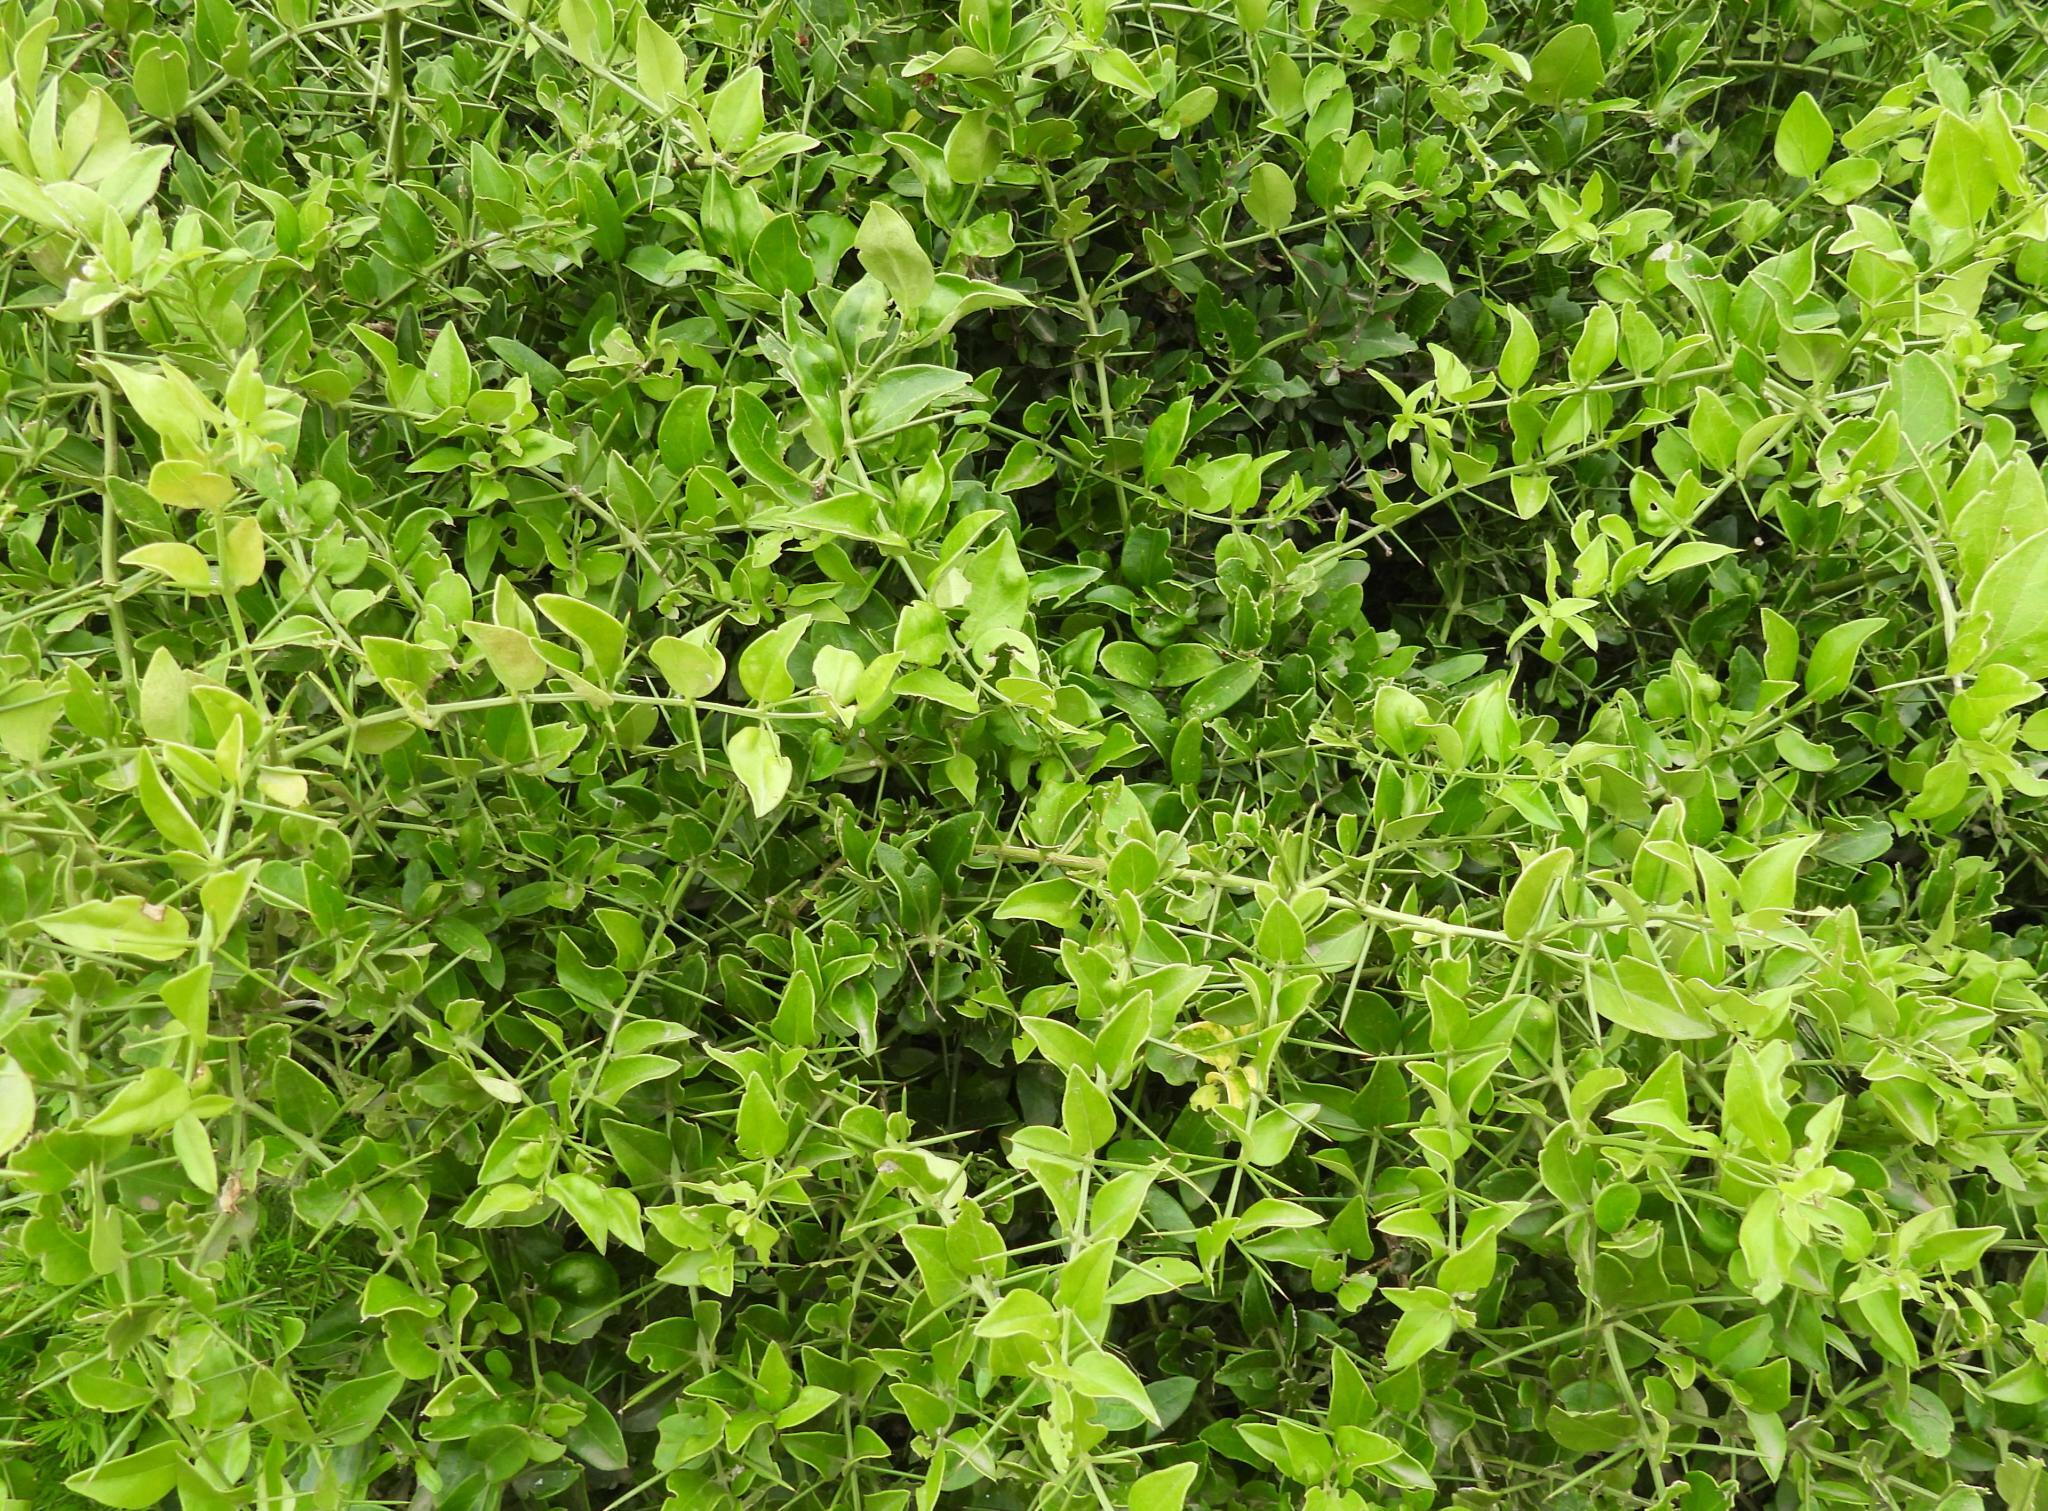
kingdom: Plantae
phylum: Tracheophyta
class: Magnoliopsida
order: Brassicales
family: Salvadoraceae
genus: Azima
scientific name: Azima tetracantha
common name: Needle bush
